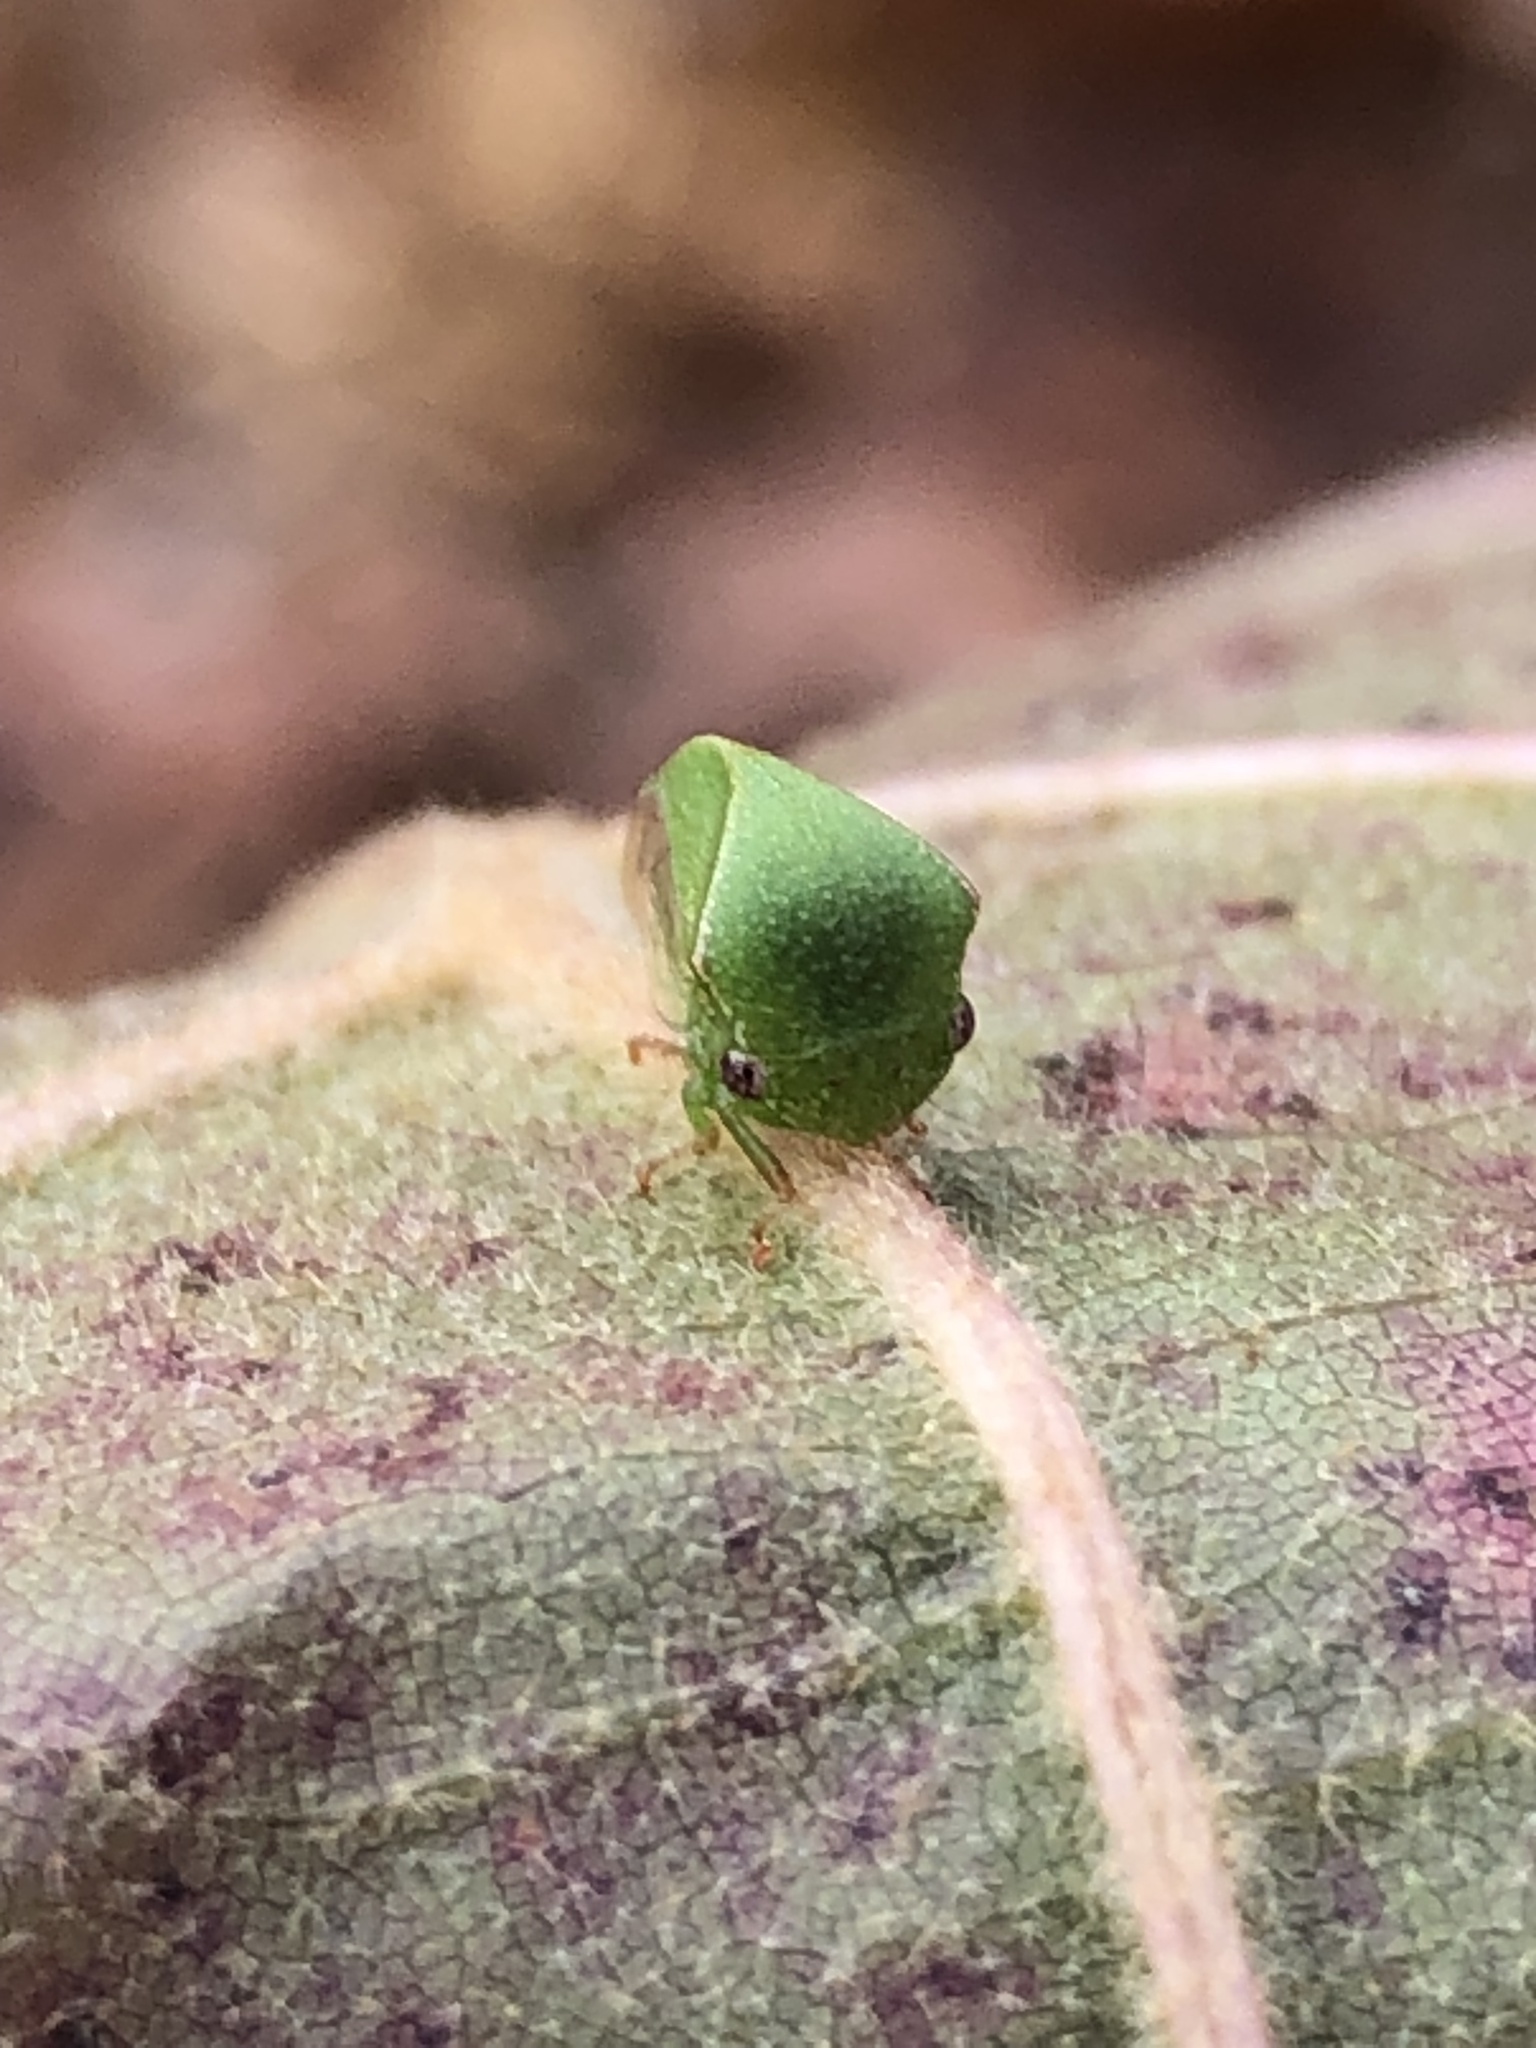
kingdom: Animalia
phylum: Arthropoda
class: Insecta
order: Hemiptera
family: Membracidae
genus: Spissistilus
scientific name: Spissistilus festina
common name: Membracid bug
